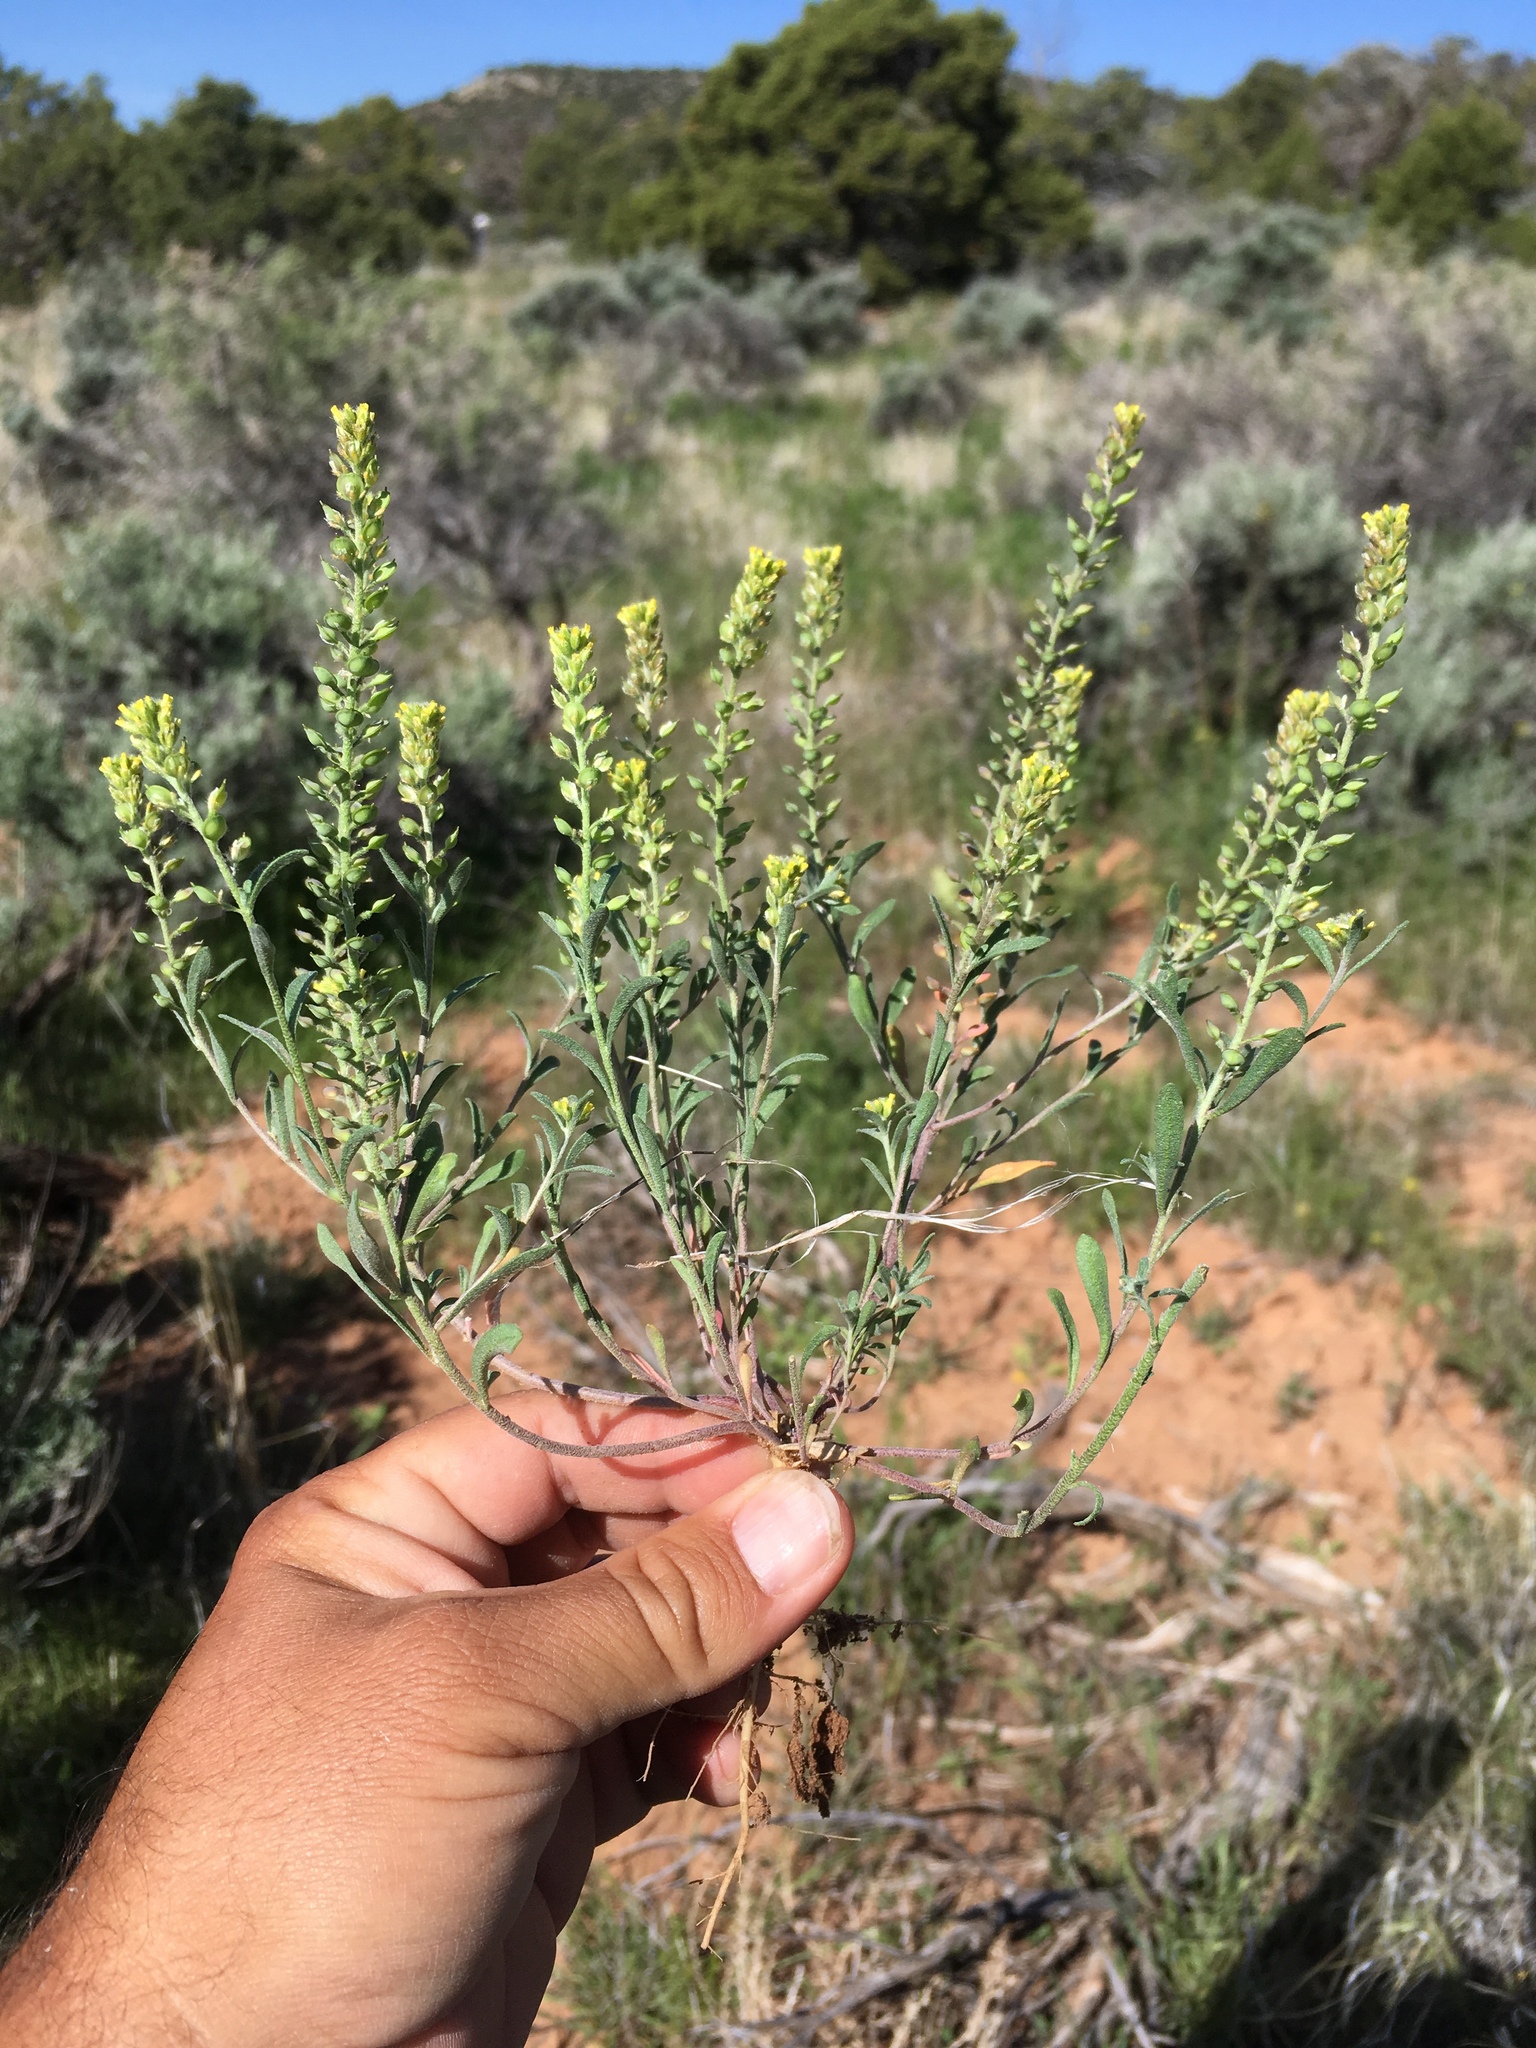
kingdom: Plantae
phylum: Tracheophyta
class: Magnoliopsida
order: Brassicales
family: Brassicaceae
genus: Alyssum
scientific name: Alyssum turkestanicum
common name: Desert alyssum
